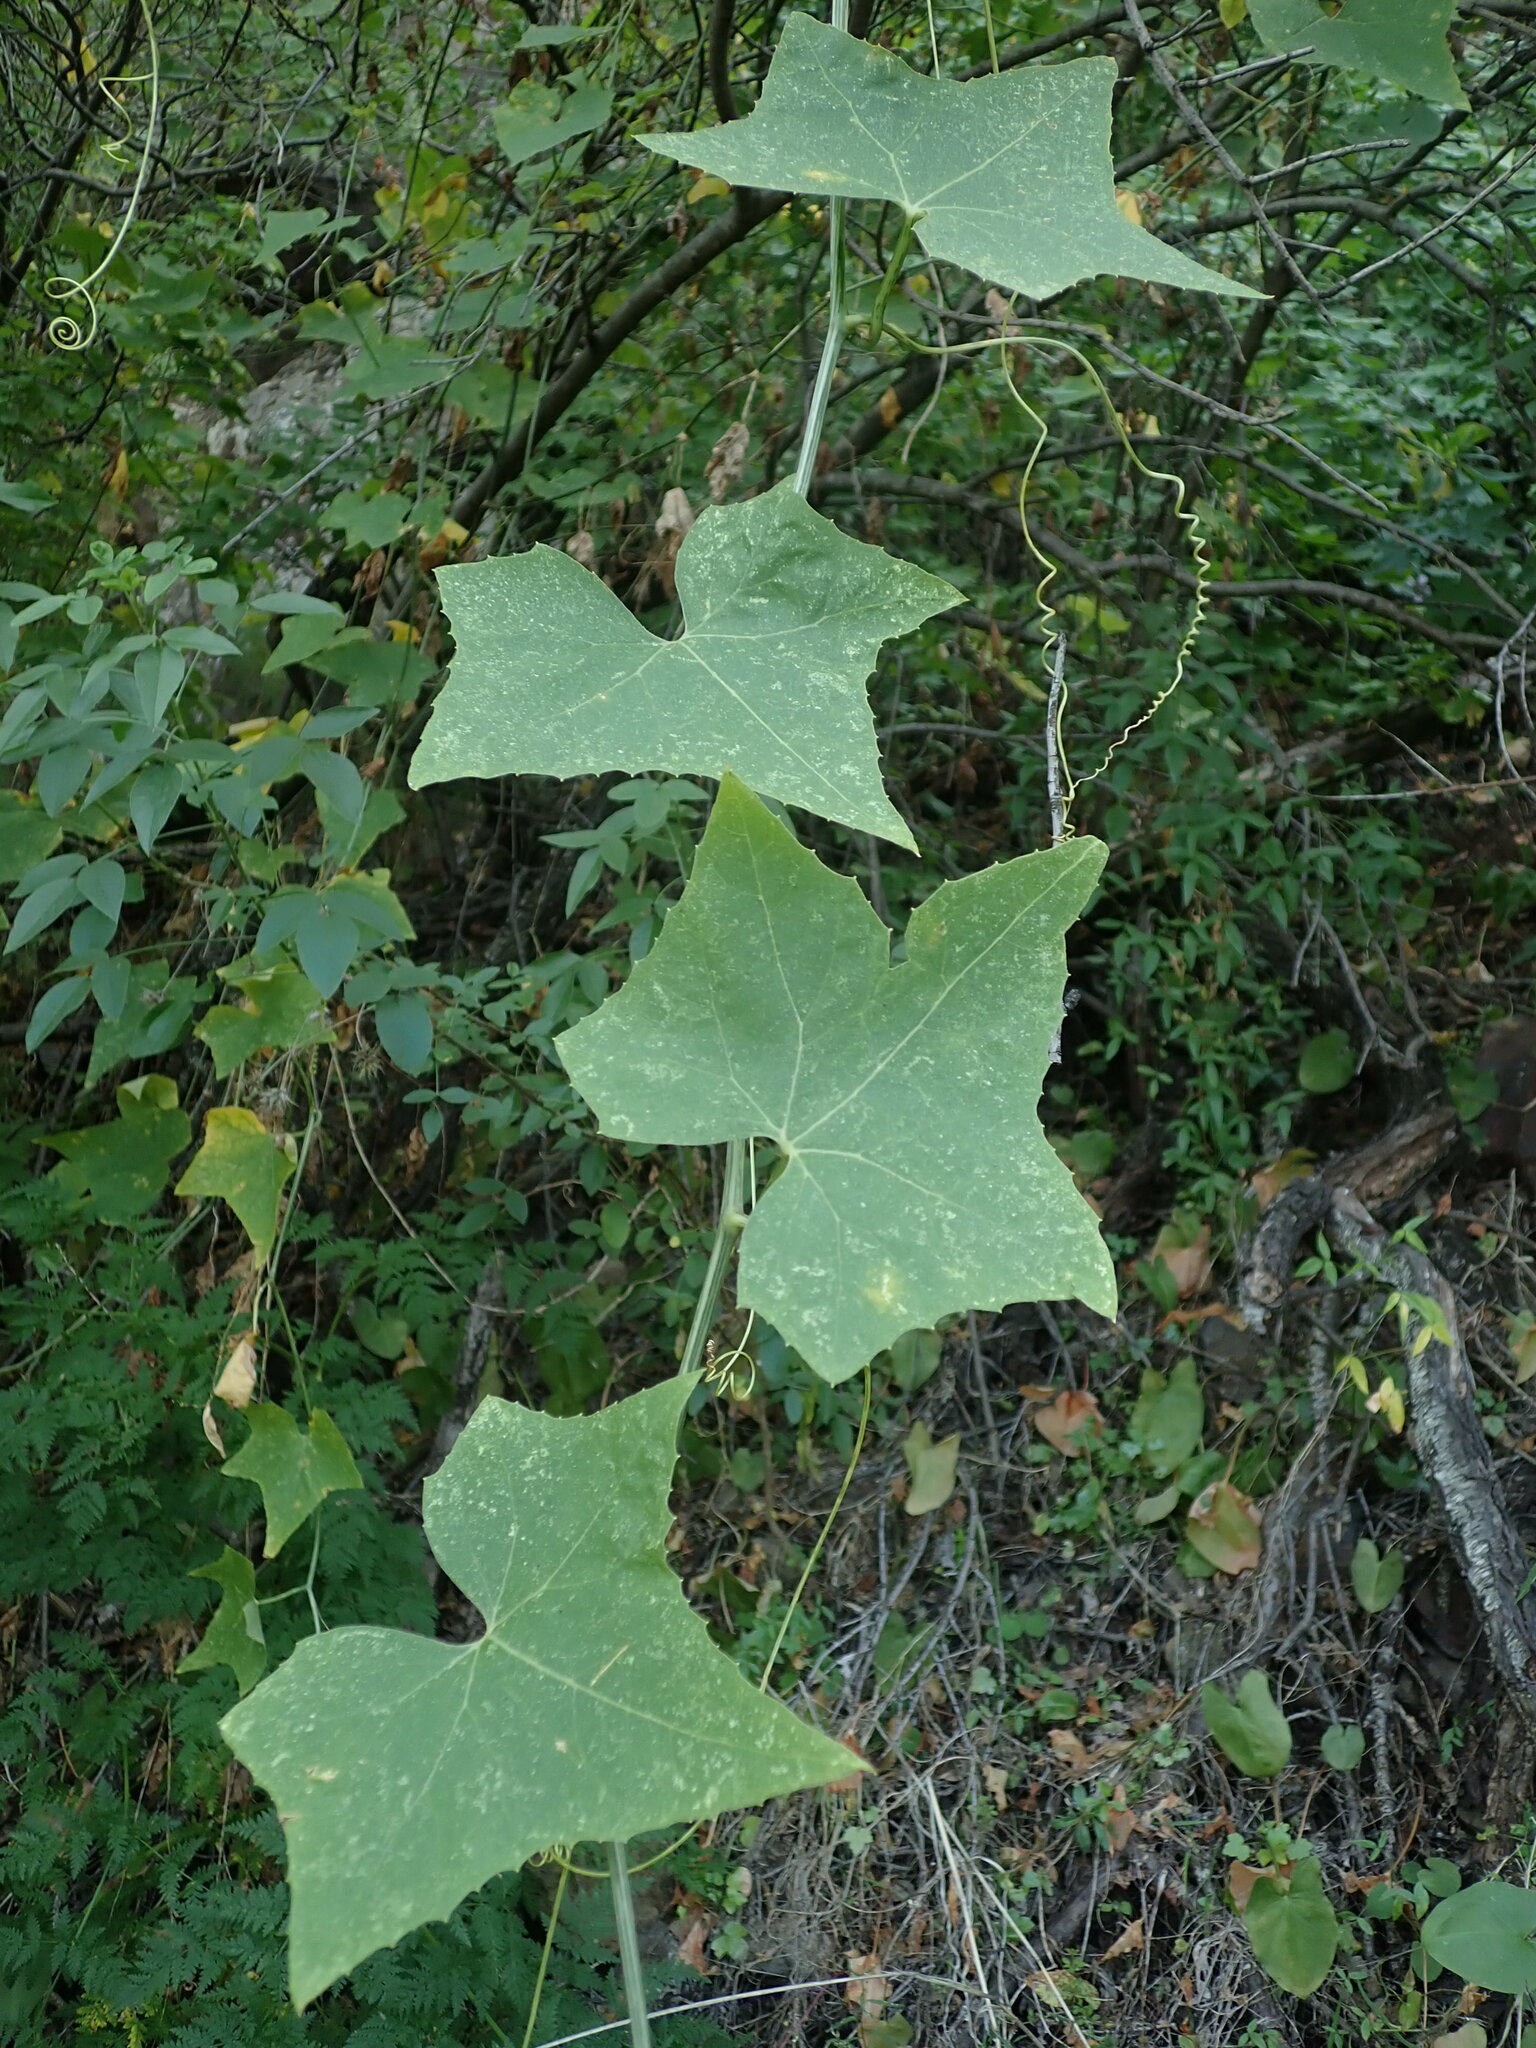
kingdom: Plantae
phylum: Tracheophyta
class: Magnoliopsida
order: Cucurbitales
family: Cucurbitaceae
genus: Bryonia
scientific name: Bryonia verrucosa
